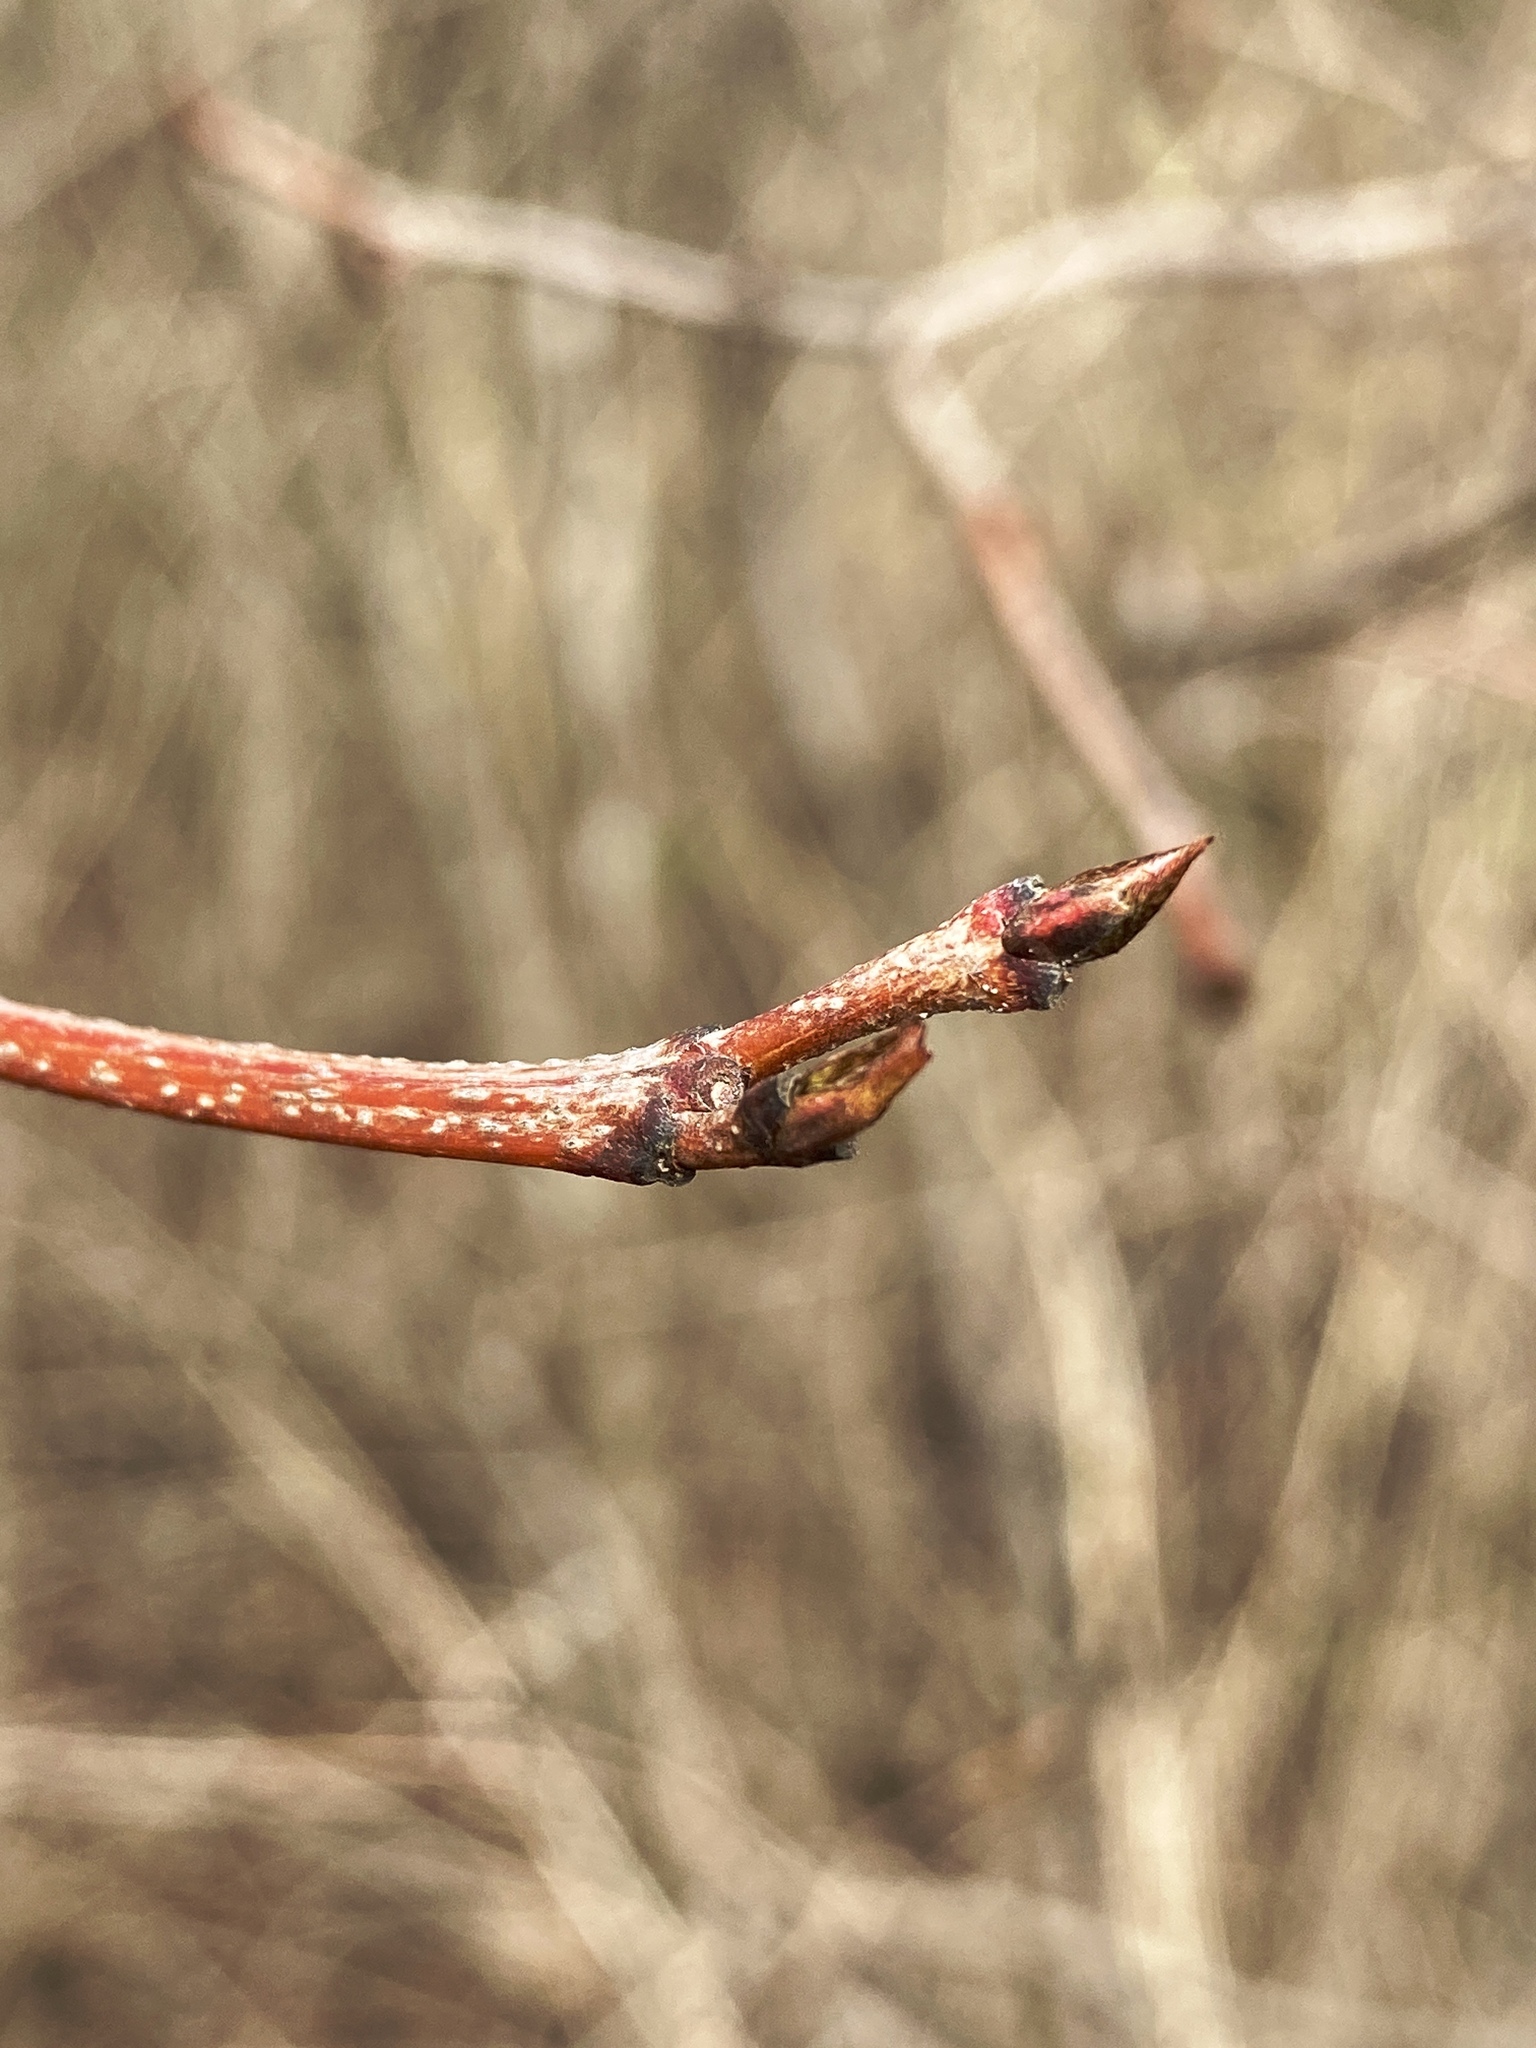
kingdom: Plantae
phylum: Tracheophyta
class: Magnoliopsida
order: Cornales
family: Cornaceae
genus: Cornus
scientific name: Cornus racemosa
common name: Panicled dogwood
